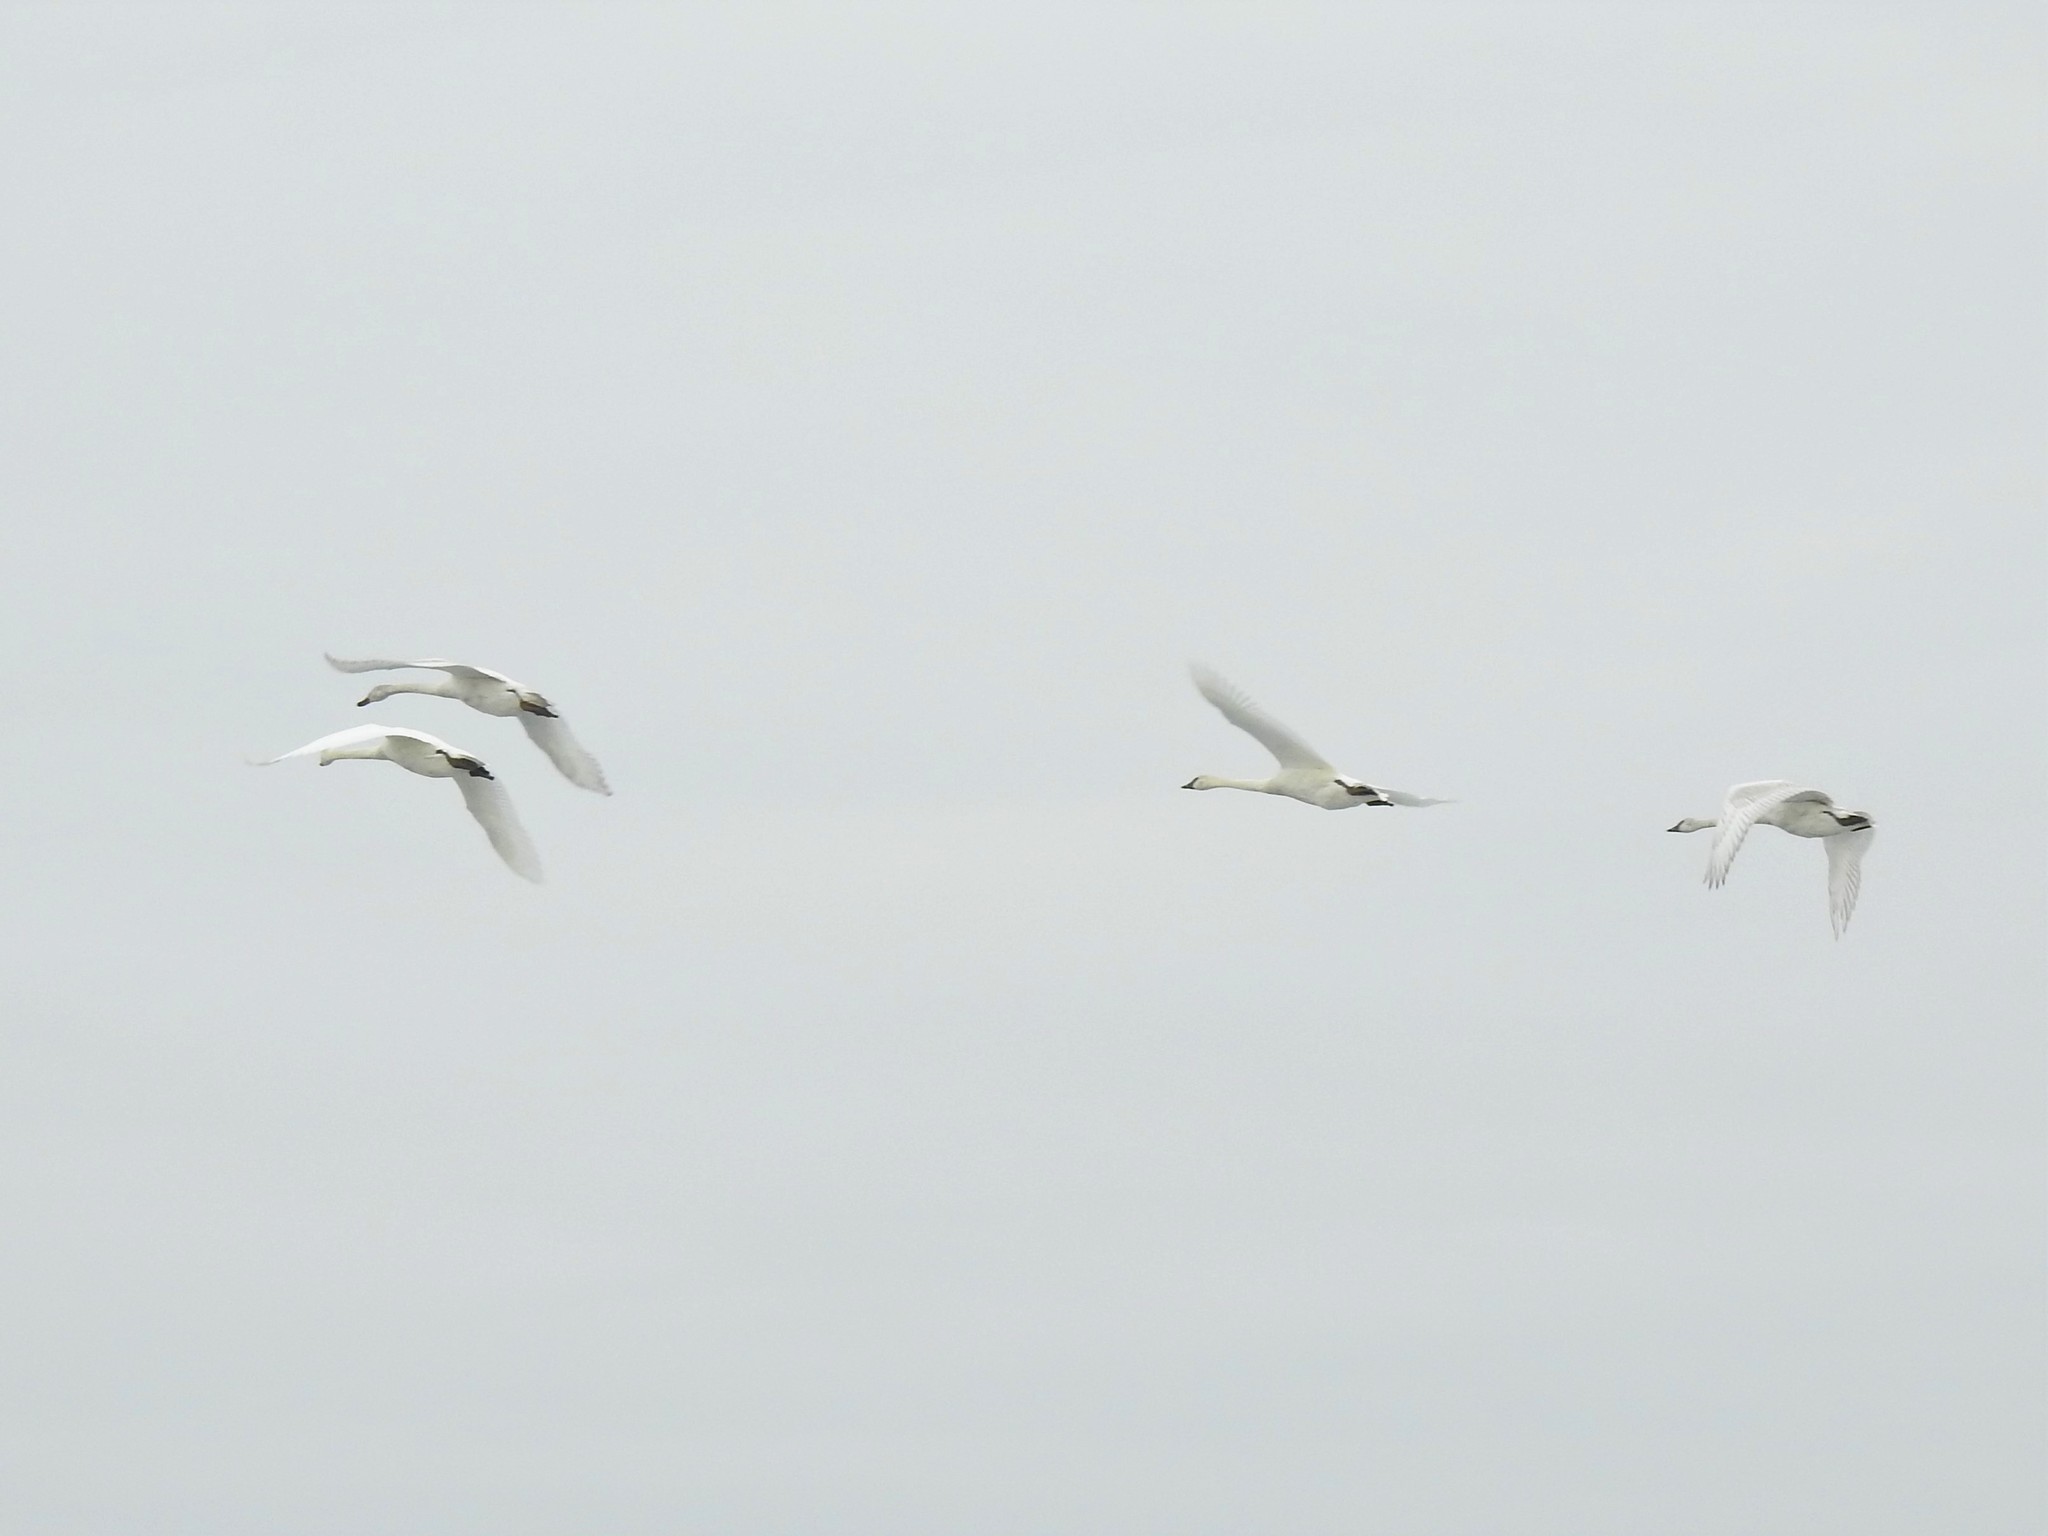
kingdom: Animalia
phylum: Chordata
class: Aves
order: Anseriformes
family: Anatidae
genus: Cygnus
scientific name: Cygnus buccinator
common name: Trumpeter swan
